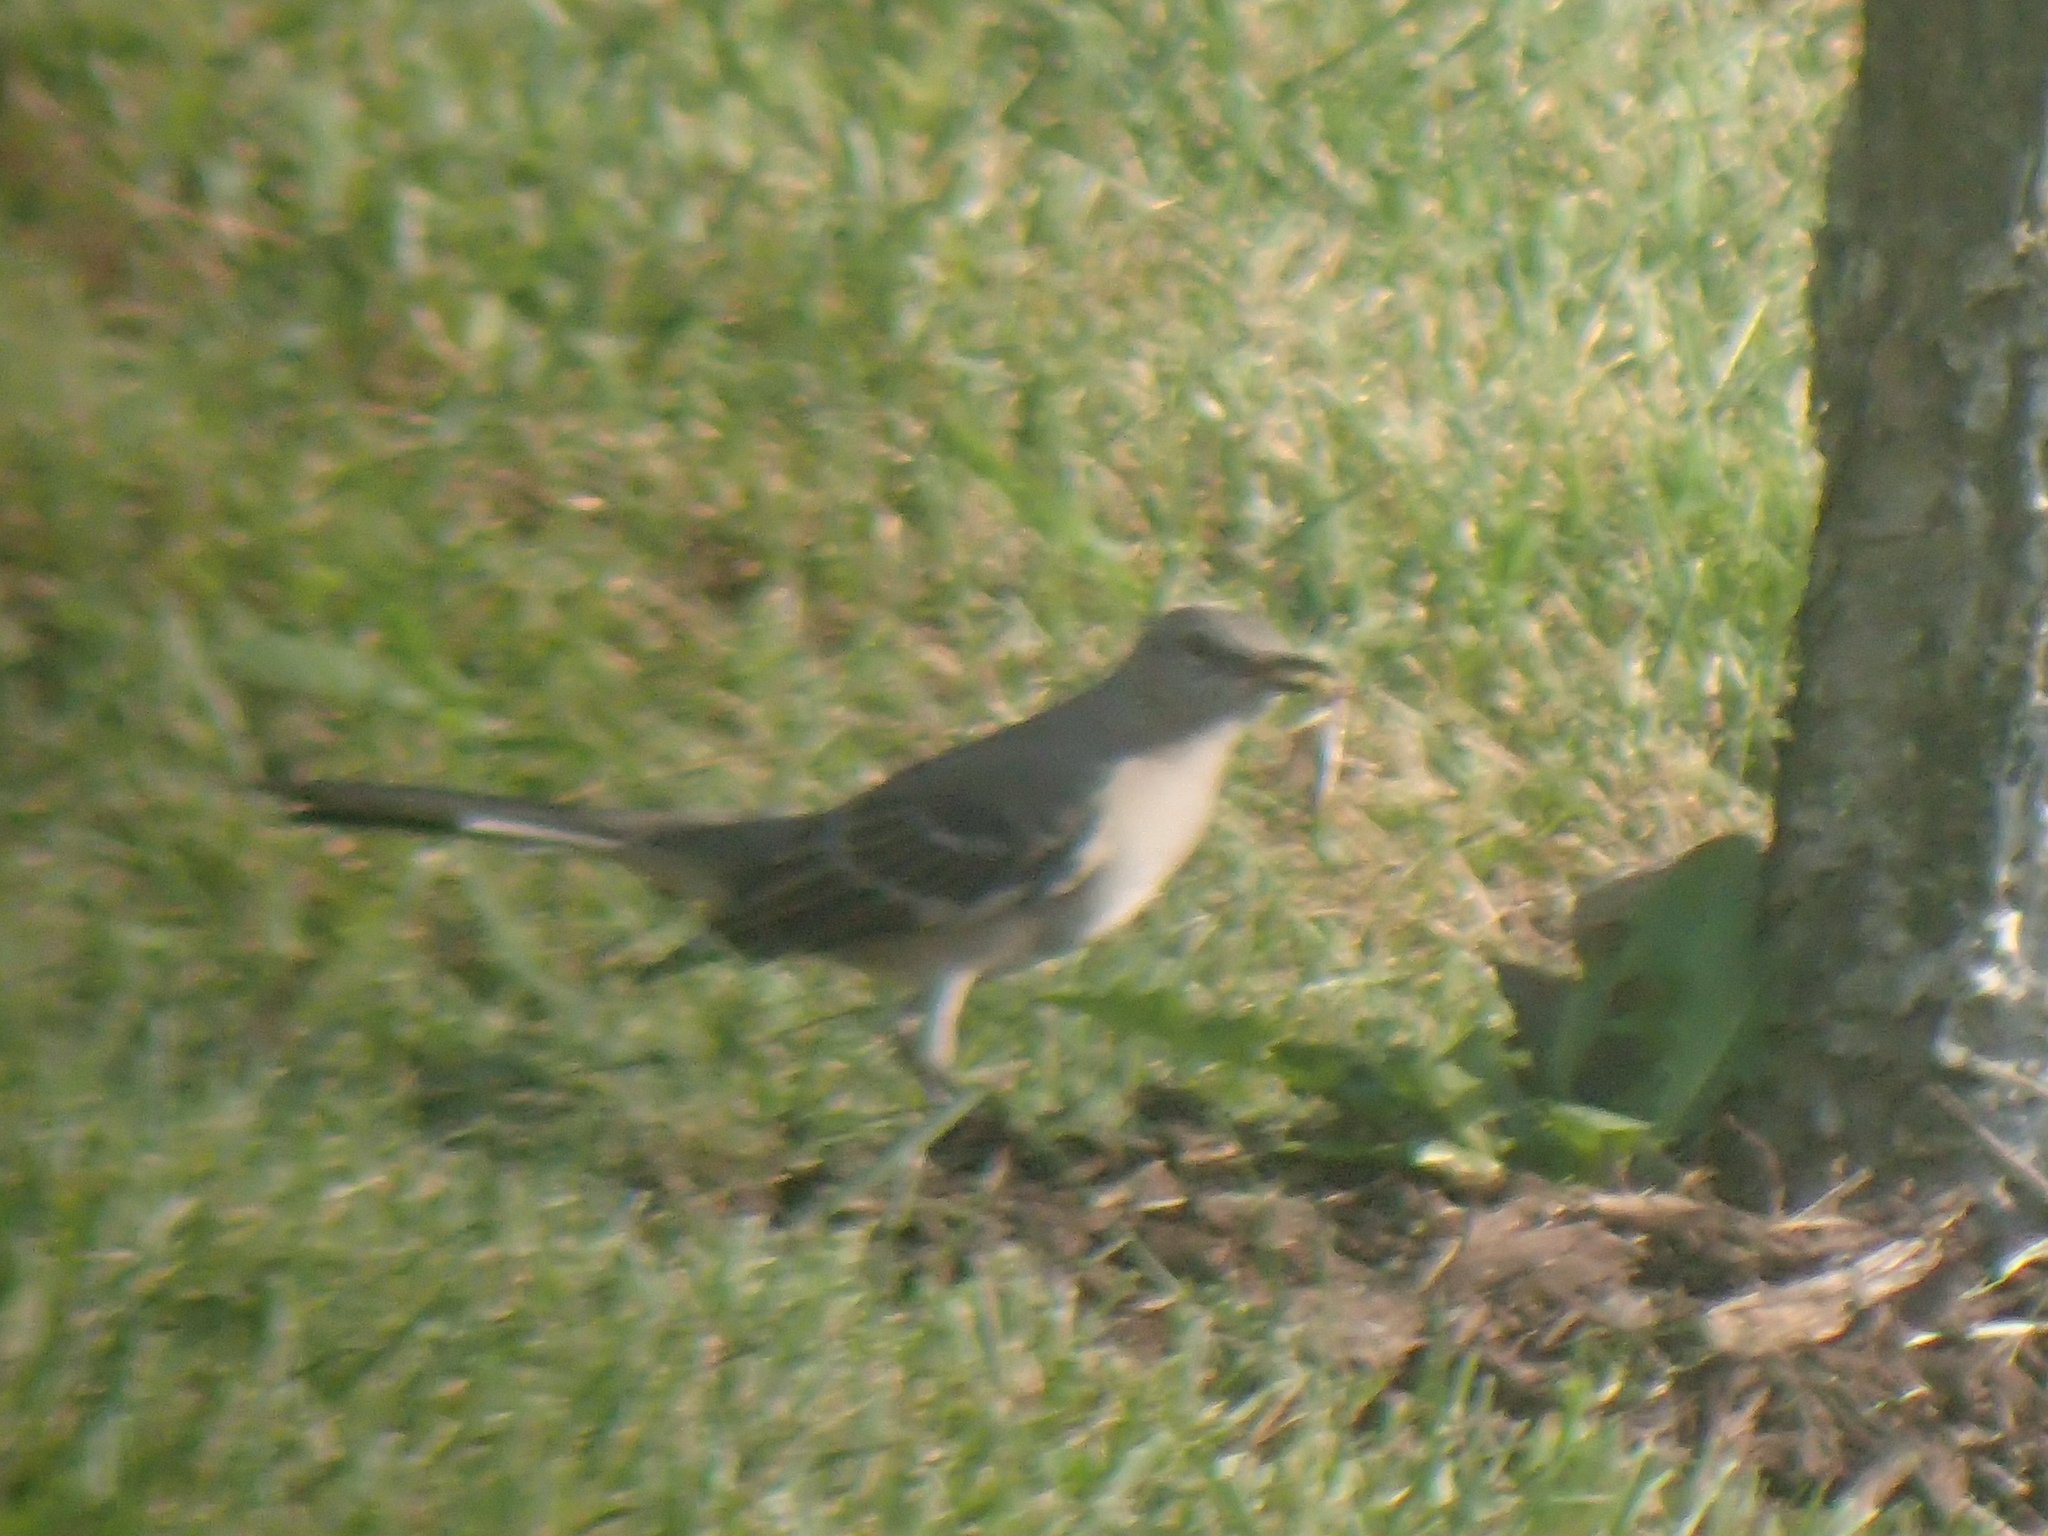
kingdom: Animalia
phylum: Chordata
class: Aves
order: Passeriformes
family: Mimidae
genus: Mimus
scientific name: Mimus polyglottos
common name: Northern mockingbird
